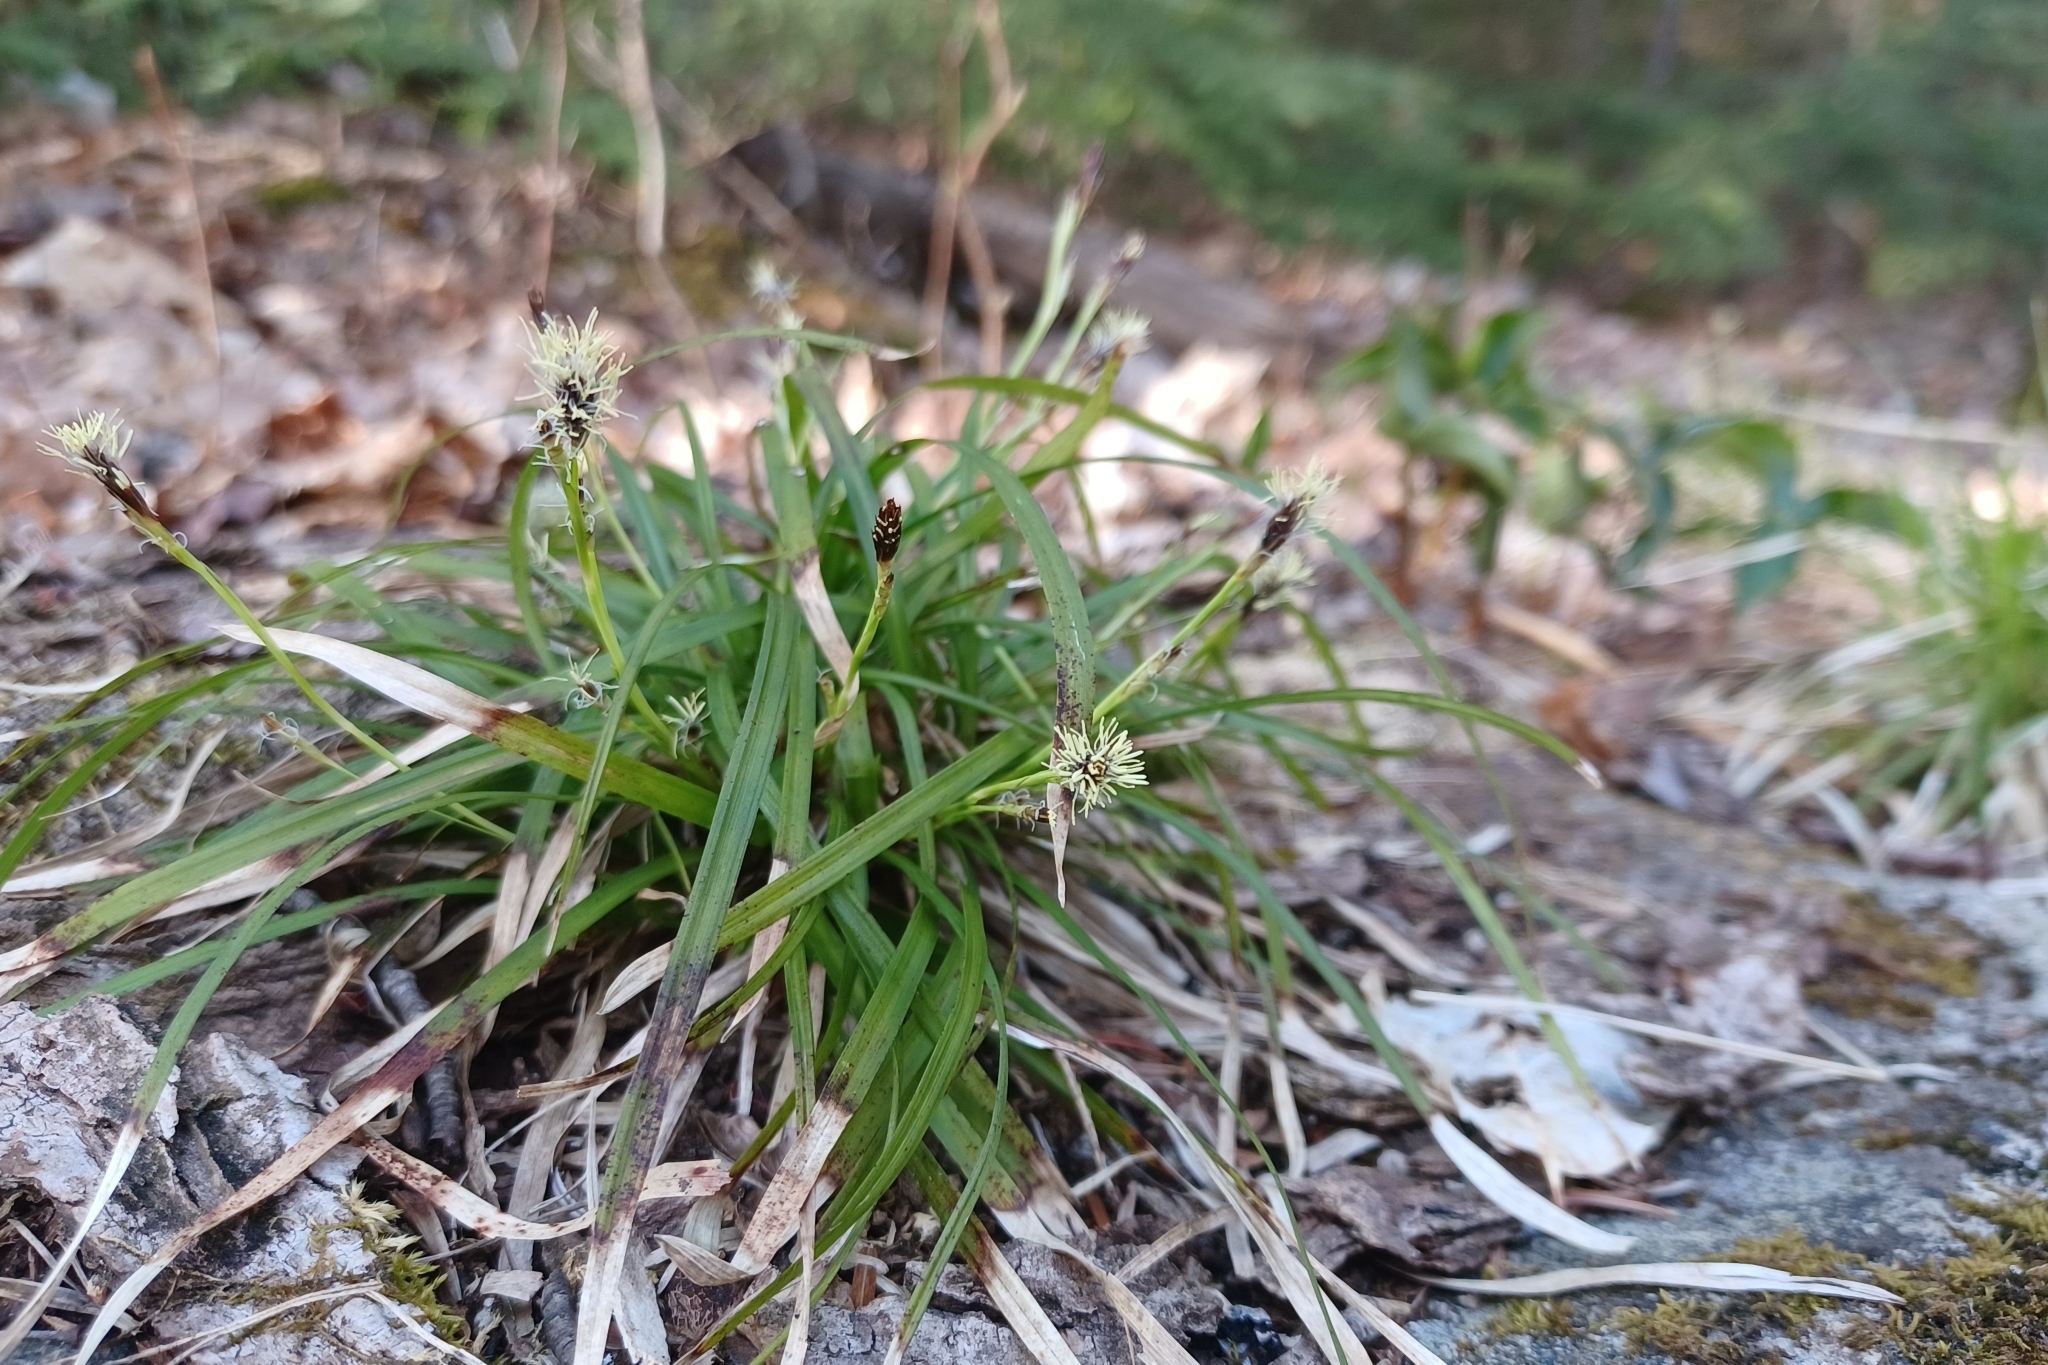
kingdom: Plantae
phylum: Tracheophyta
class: Liliopsida
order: Poales
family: Cyperaceae
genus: Carex
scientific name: Carex pedunculata
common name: Pedunculate sedge
